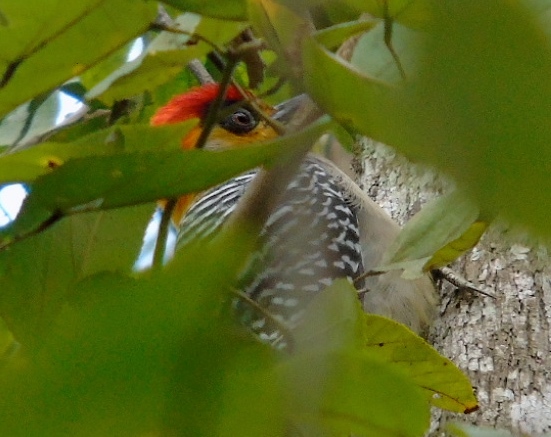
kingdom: Animalia
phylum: Chordata
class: Aves
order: Piciformes
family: Picidae
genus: Melanerpes
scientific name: Melanerpes chrysogenys
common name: Golden-cheeked woodpecker
